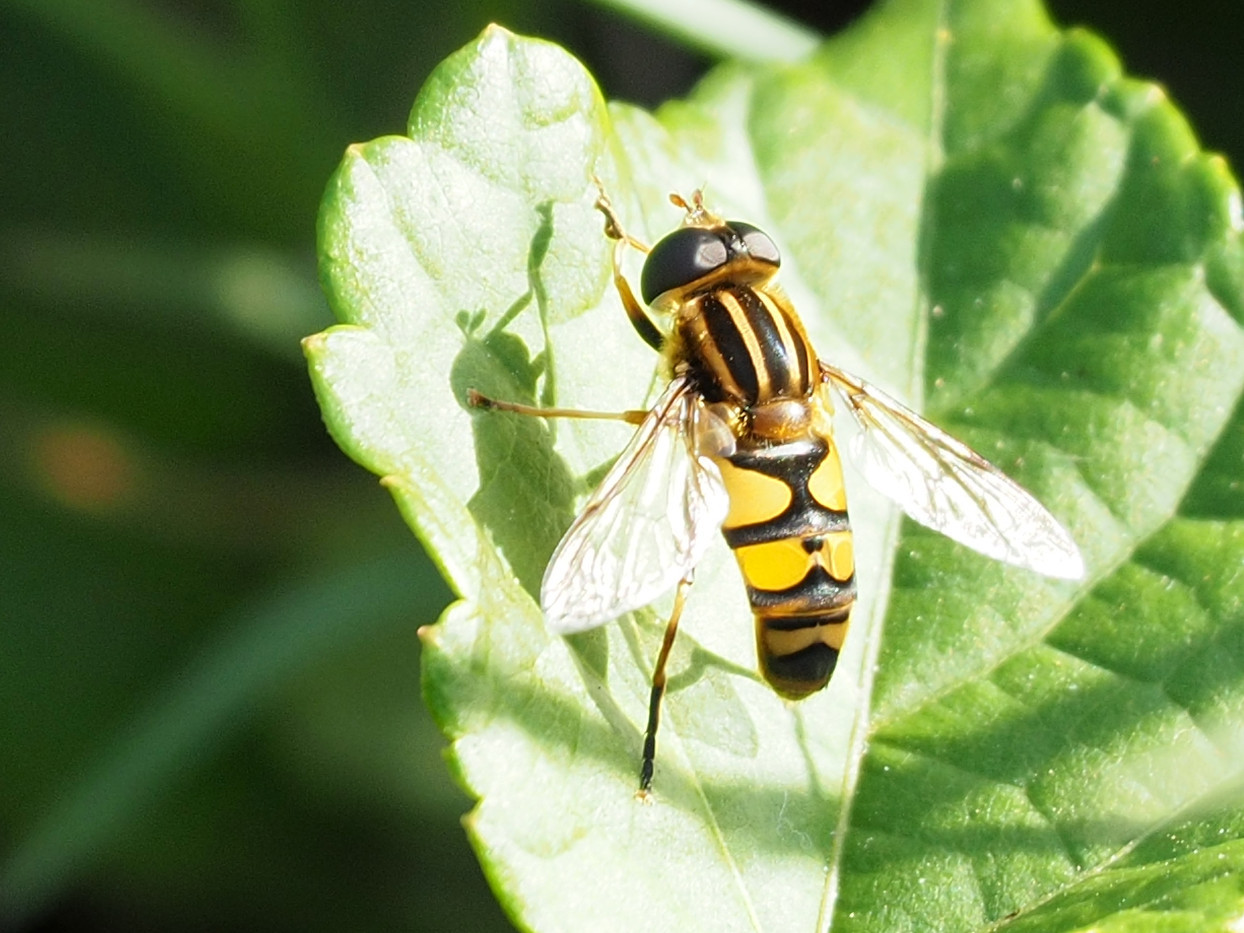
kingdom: Animalia
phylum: Arthropoda
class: Insecta
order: Diptera
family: Syrphidae
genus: Helophilus
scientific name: Helophilus fasciatus
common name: Narrow-headed marsh fly
